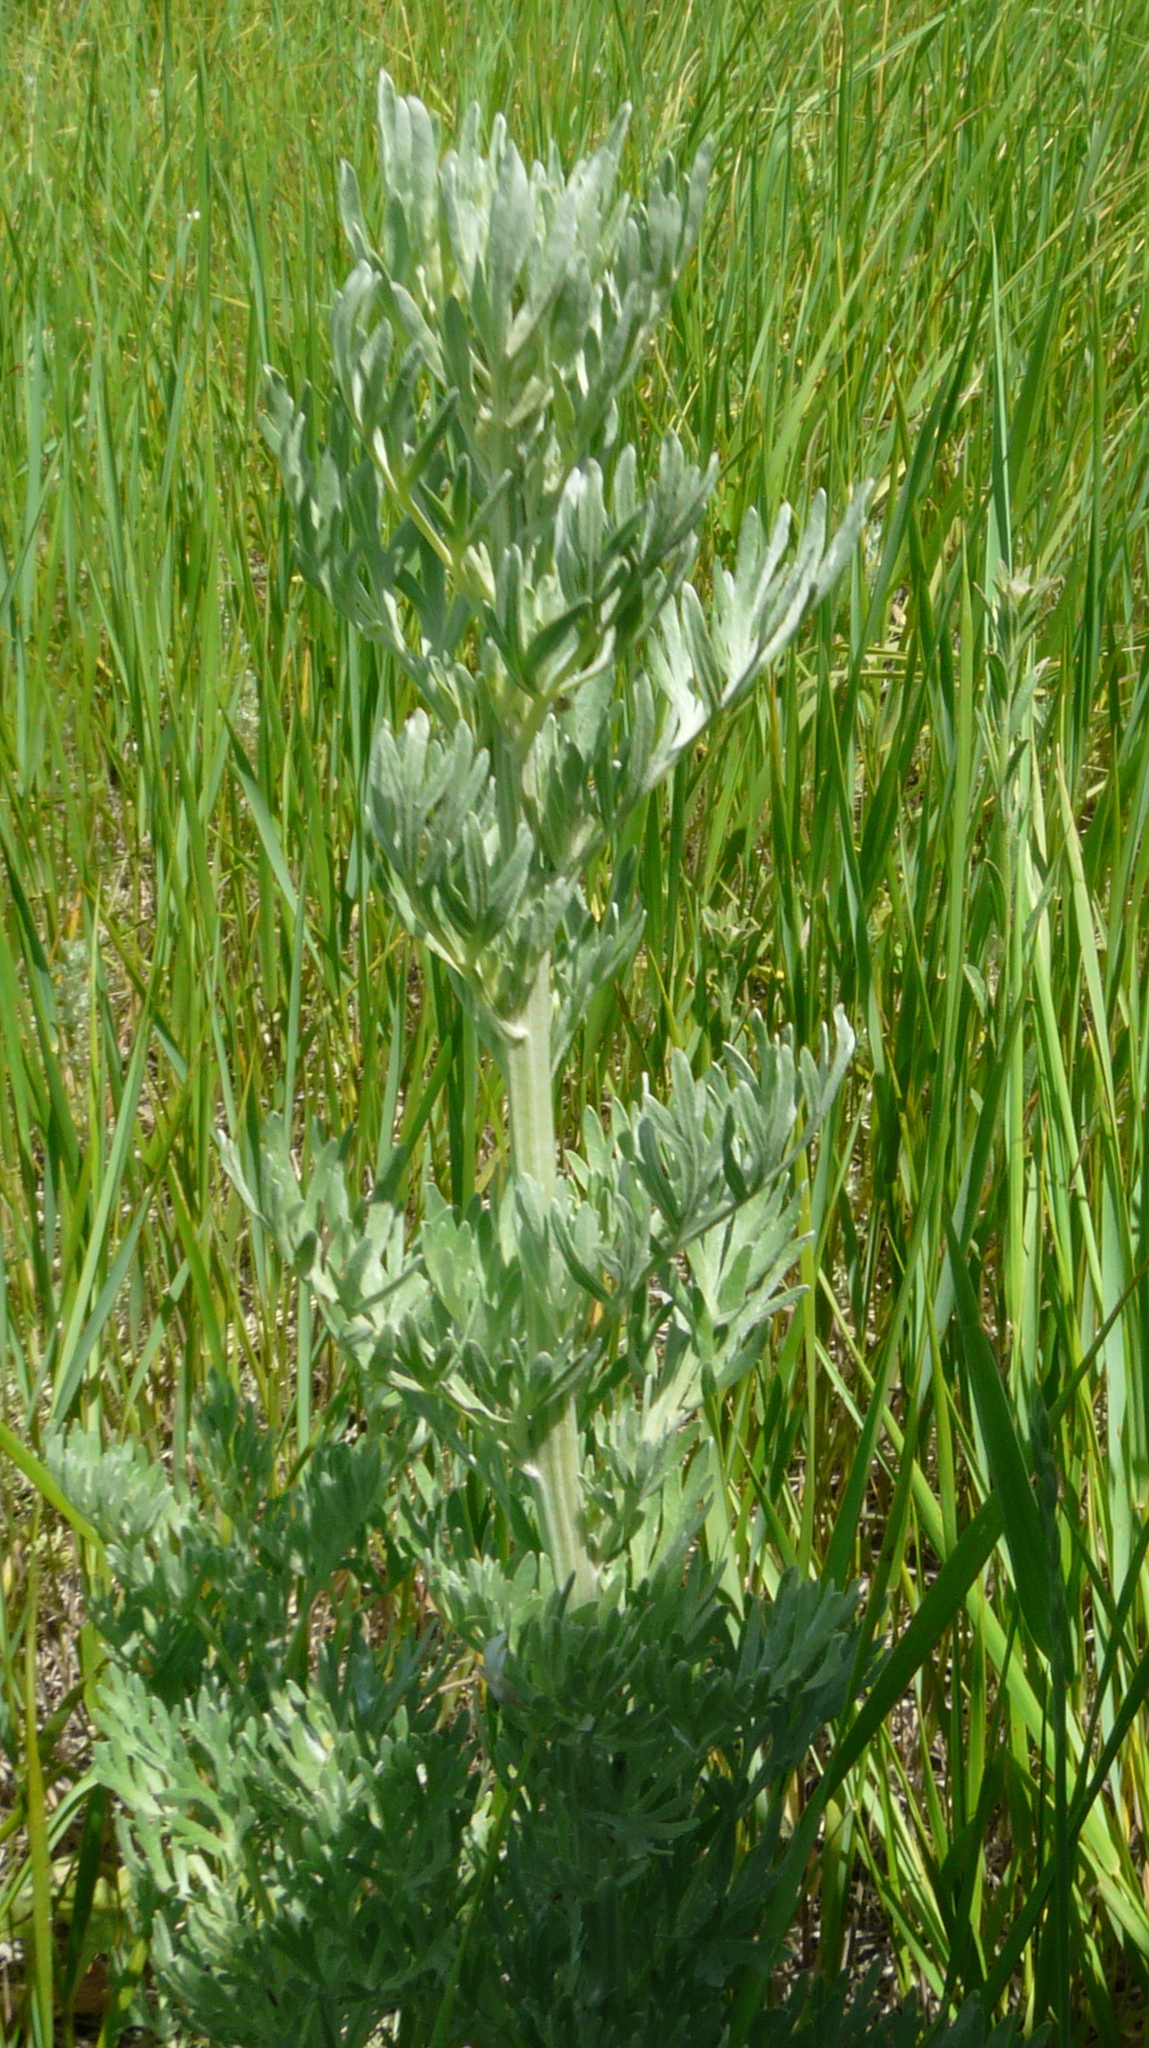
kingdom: Plantae
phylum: Tracheophyta
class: Magnoliopsida
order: Asterales
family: Asteraceae
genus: Artemisia
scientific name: Artemisia absinthium
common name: Wormwood
